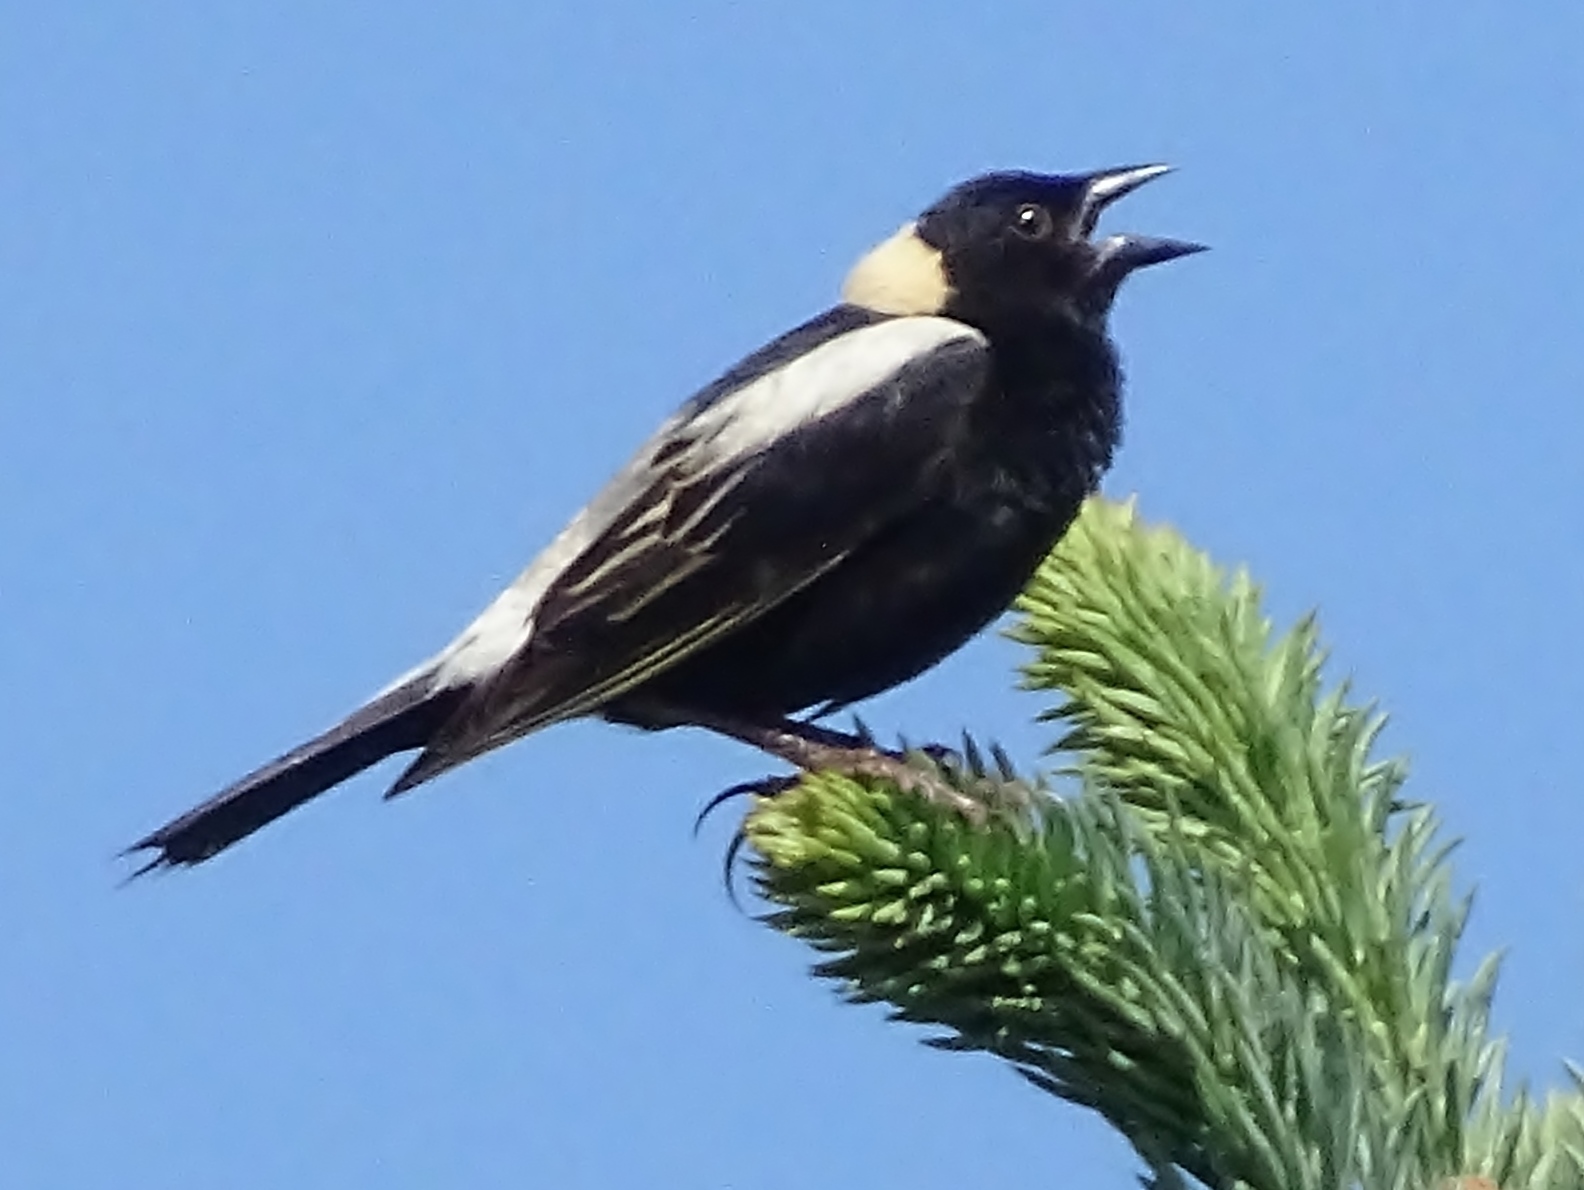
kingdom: Animalia
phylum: Chordata
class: Aves
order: Passeriformes
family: Icteridae
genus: Dolichonyx
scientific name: Dolichonyx oryzivorus
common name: Bobolink
